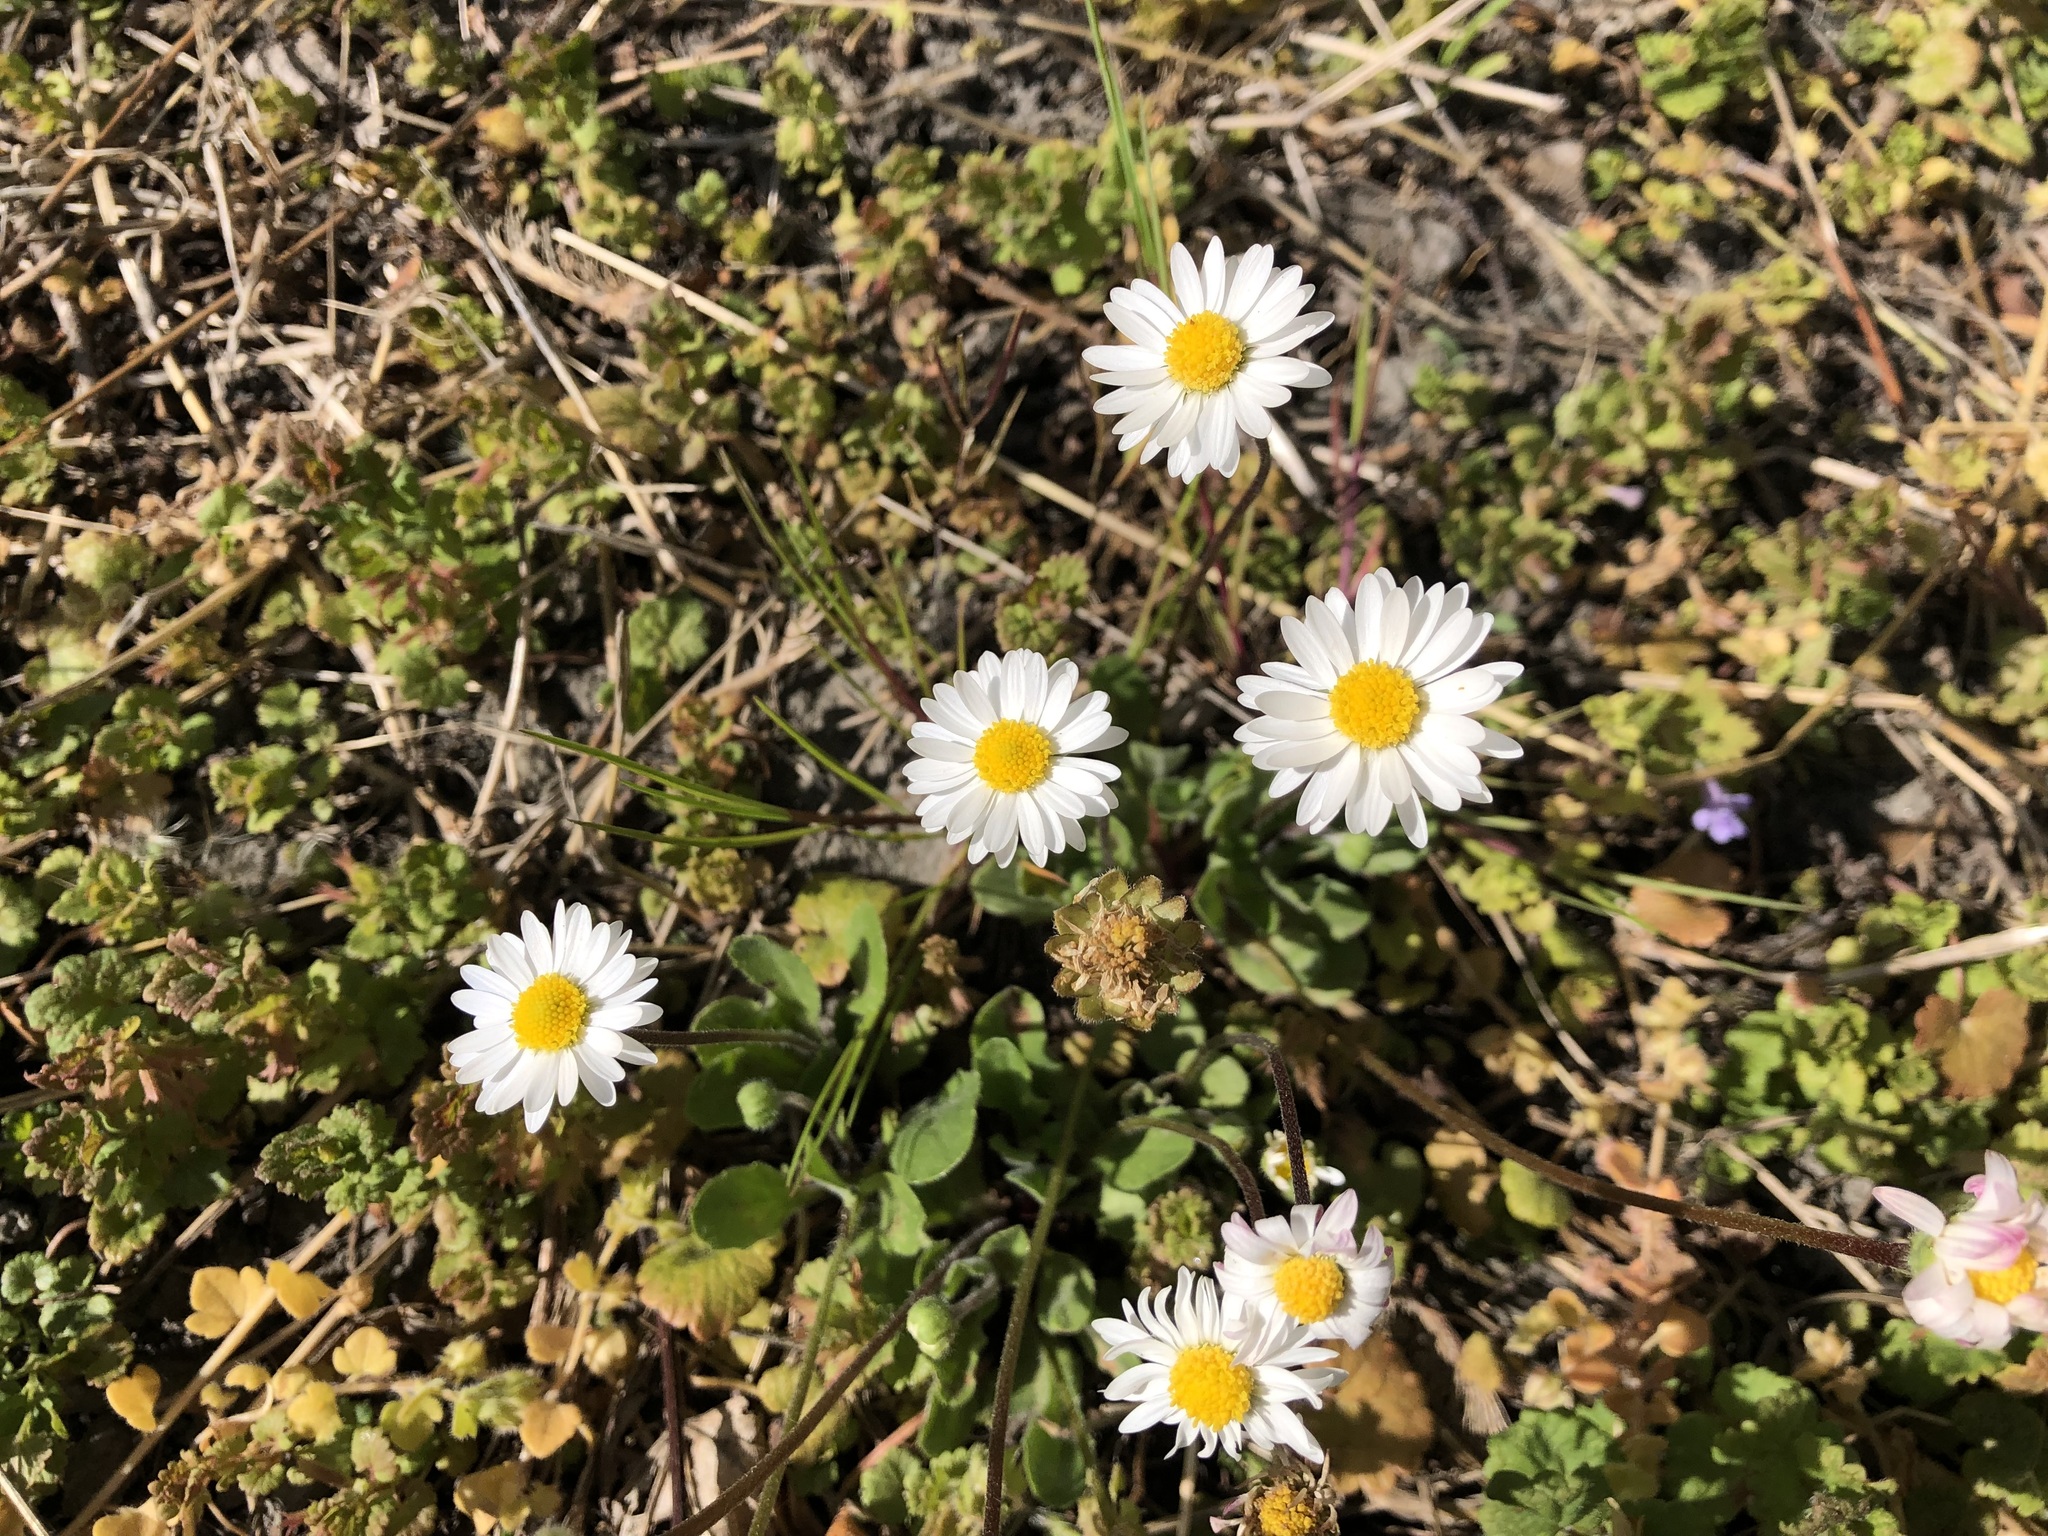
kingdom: Plantae
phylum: Tracheophyta
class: Magnoliopsida
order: Asterales
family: Asteraceae
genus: Bellis
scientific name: Bellis perennis
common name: Lawndaisy
